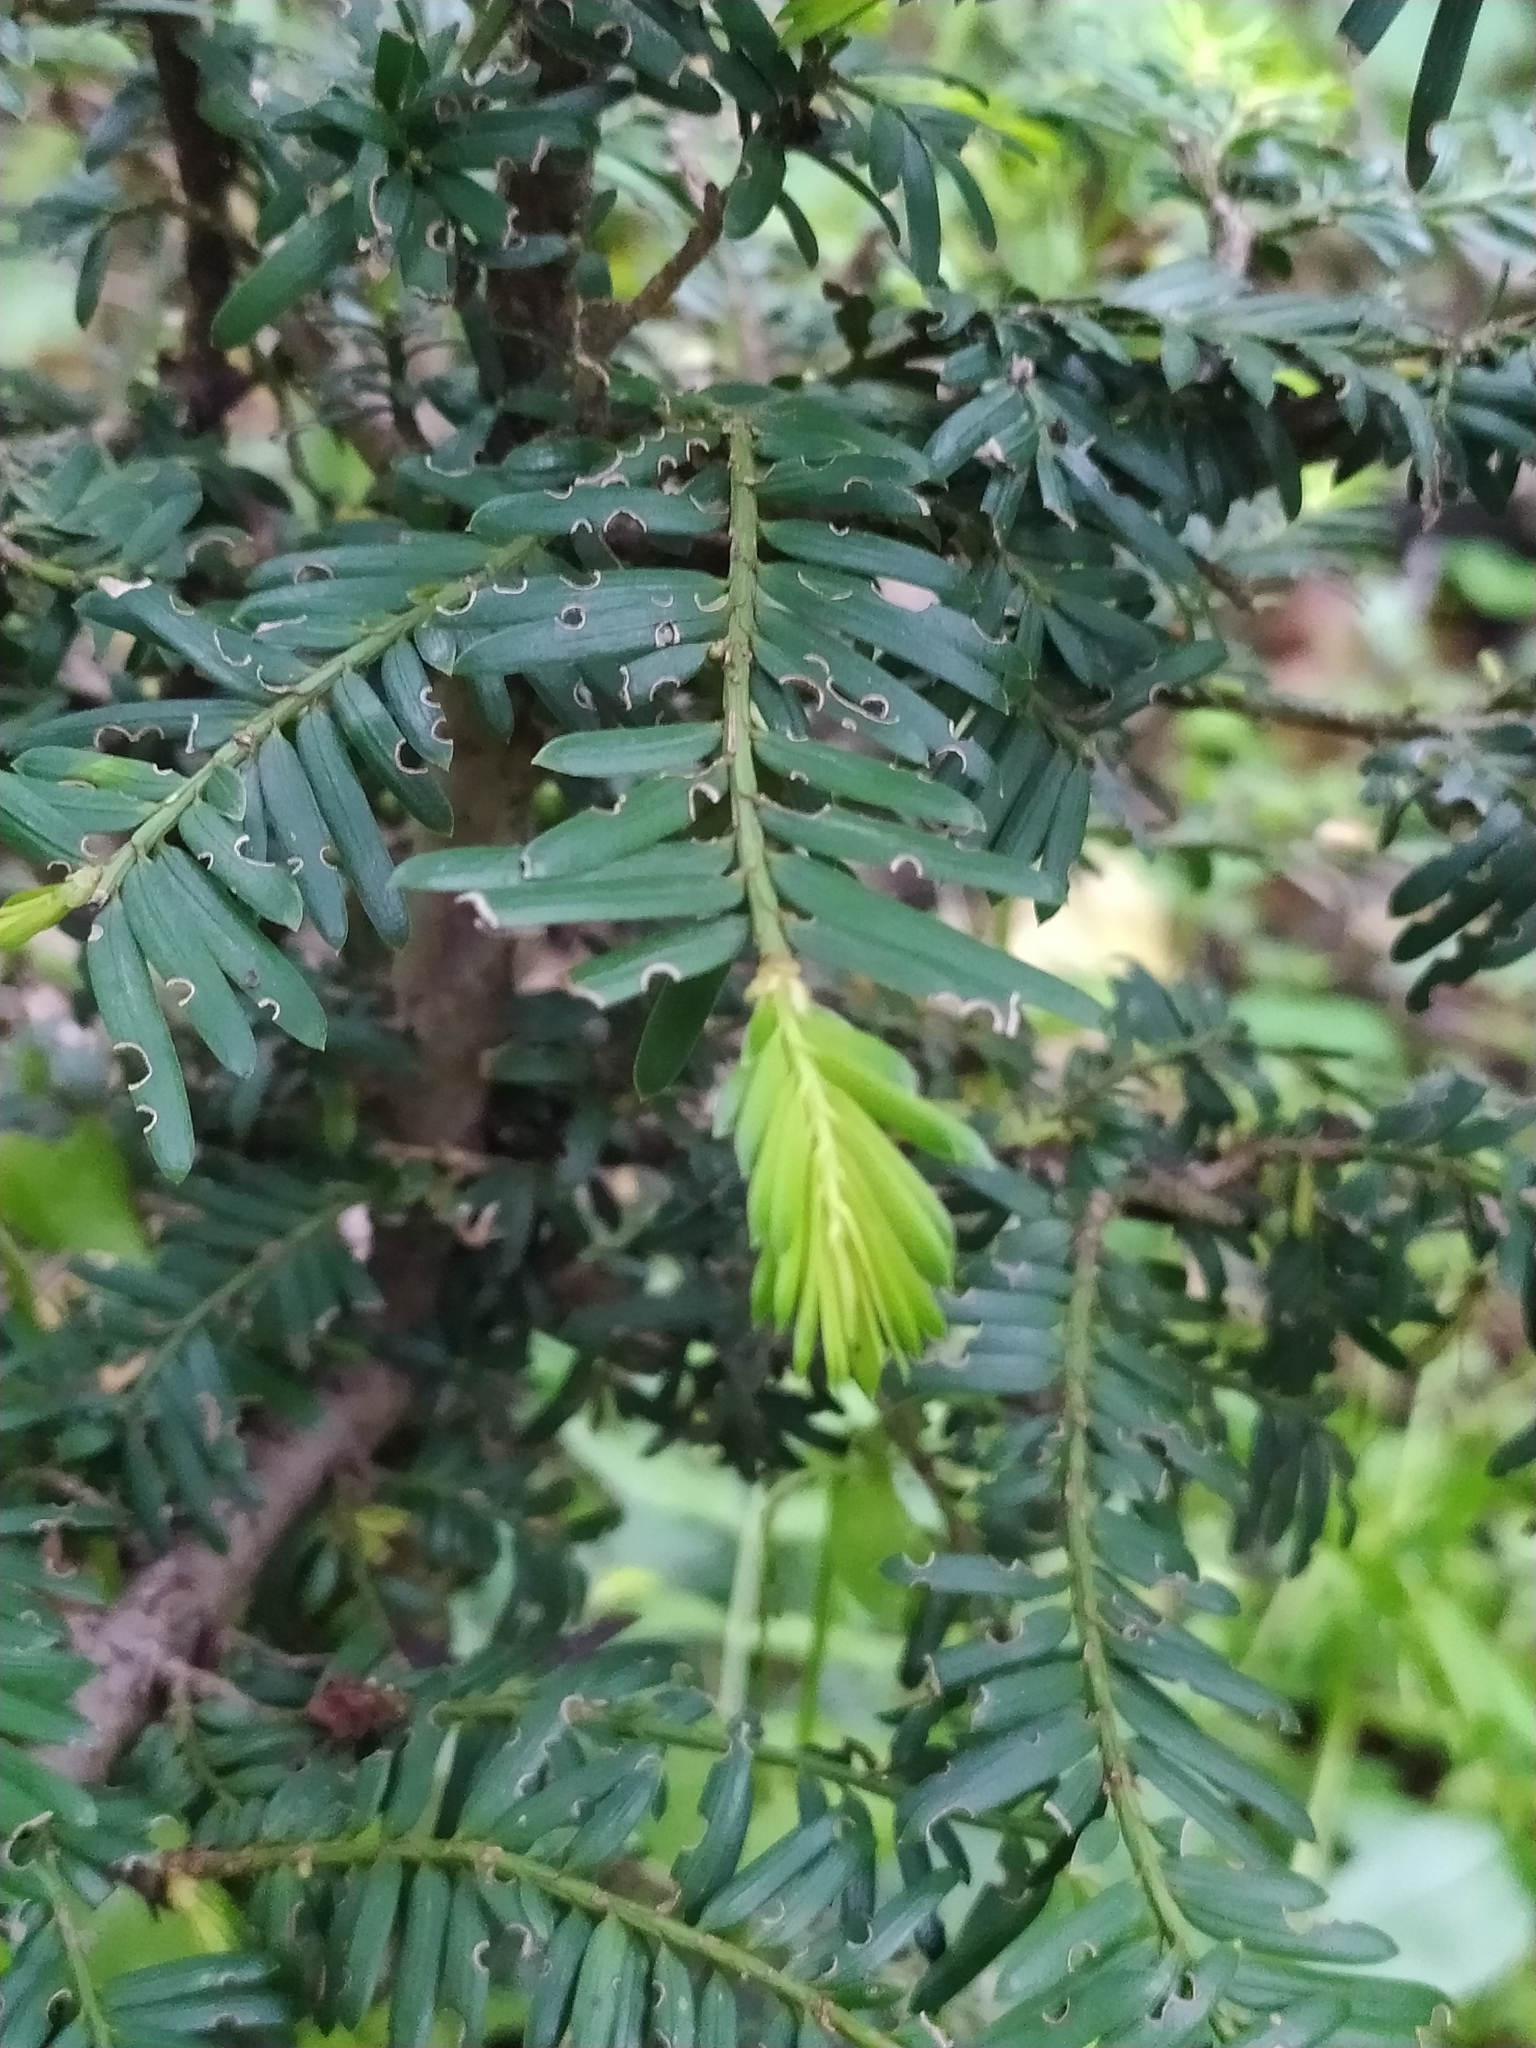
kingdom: Plantae
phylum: Tracheophyta
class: Pinopsida
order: Pinales
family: Taxaceae
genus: Taxus
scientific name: Taxus baccata
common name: Yew
